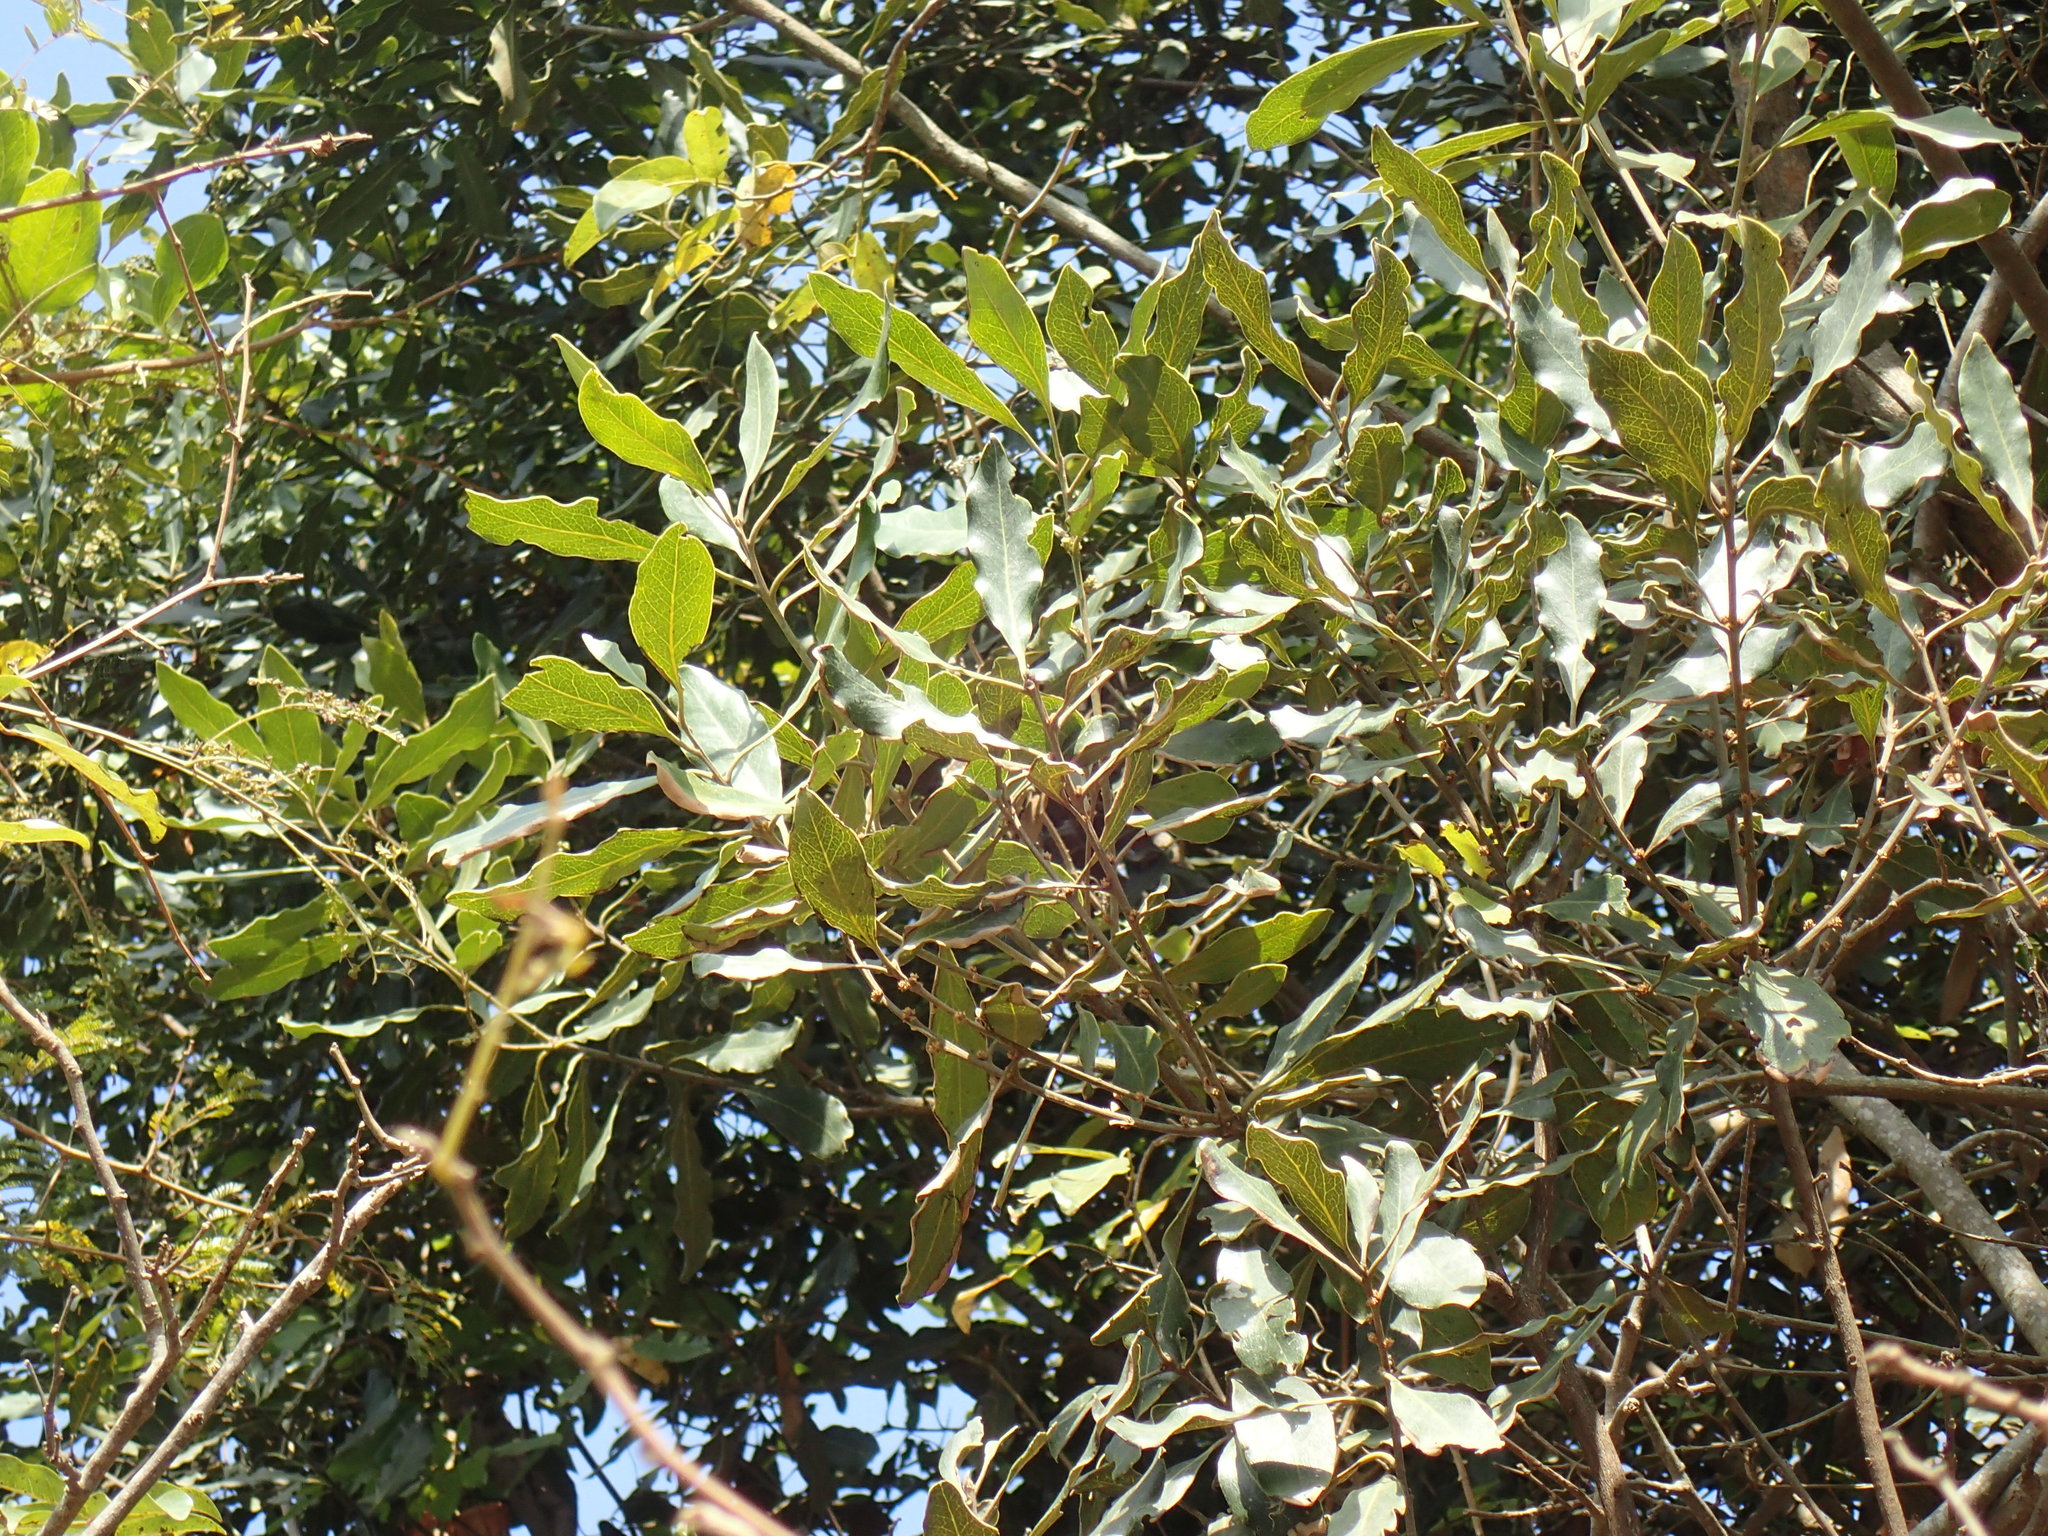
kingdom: Plantae
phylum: Tracheophyta
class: Magnoliopsida
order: Ericales
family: Ebenaceae
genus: Euclea
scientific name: Euclea natalensis
